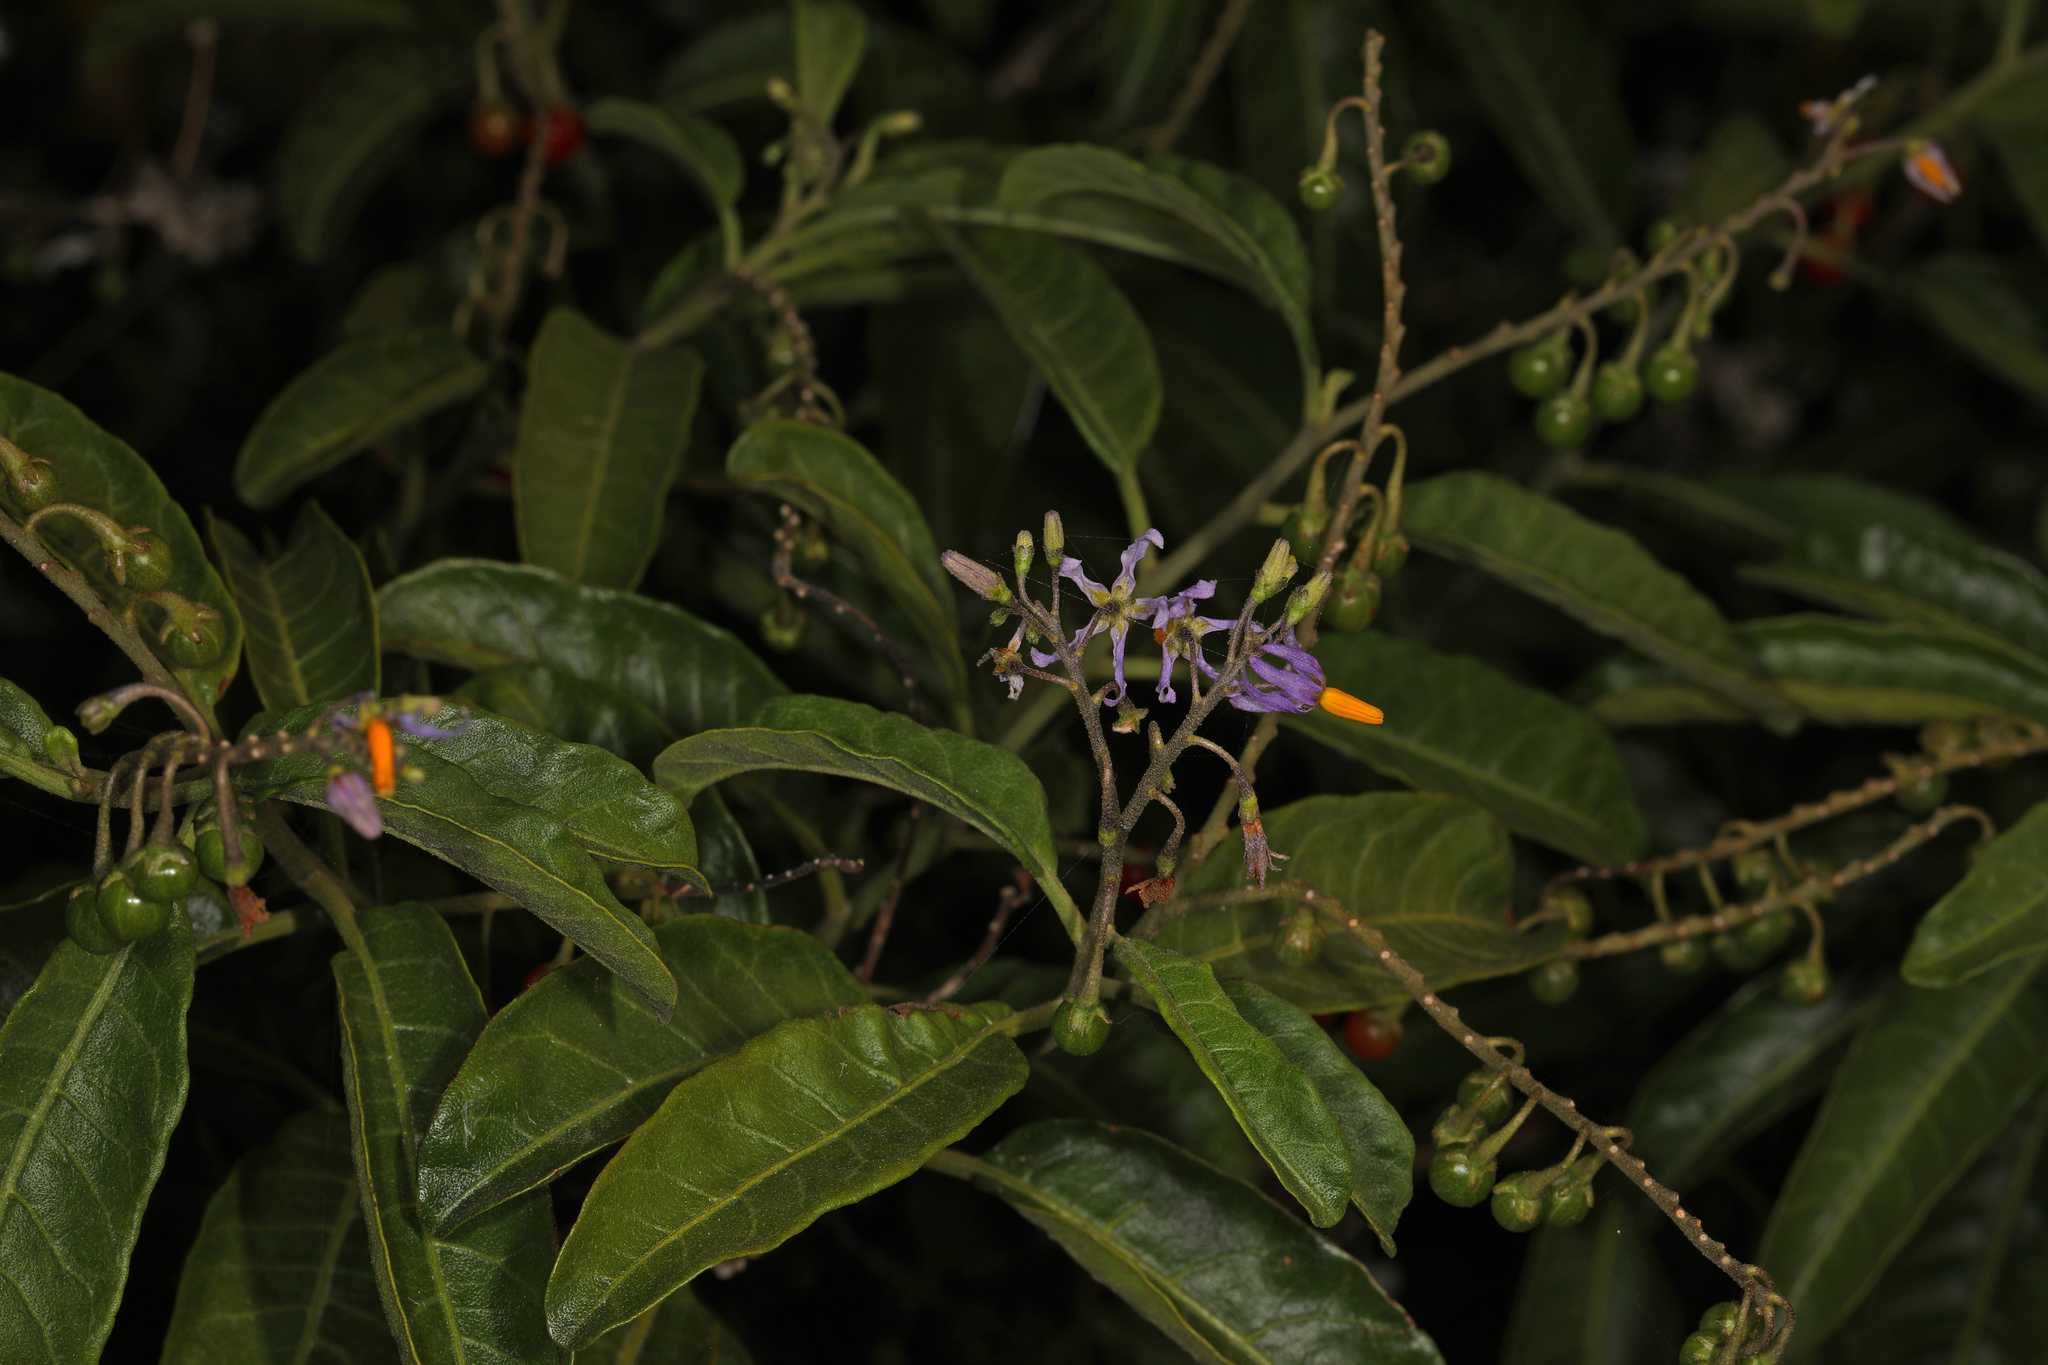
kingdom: Plantae
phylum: Tracheophyta
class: Magnoliopsida
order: Solanales
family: Solanaceae
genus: Solanum
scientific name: Solanum bahamense
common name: Canker-berry
